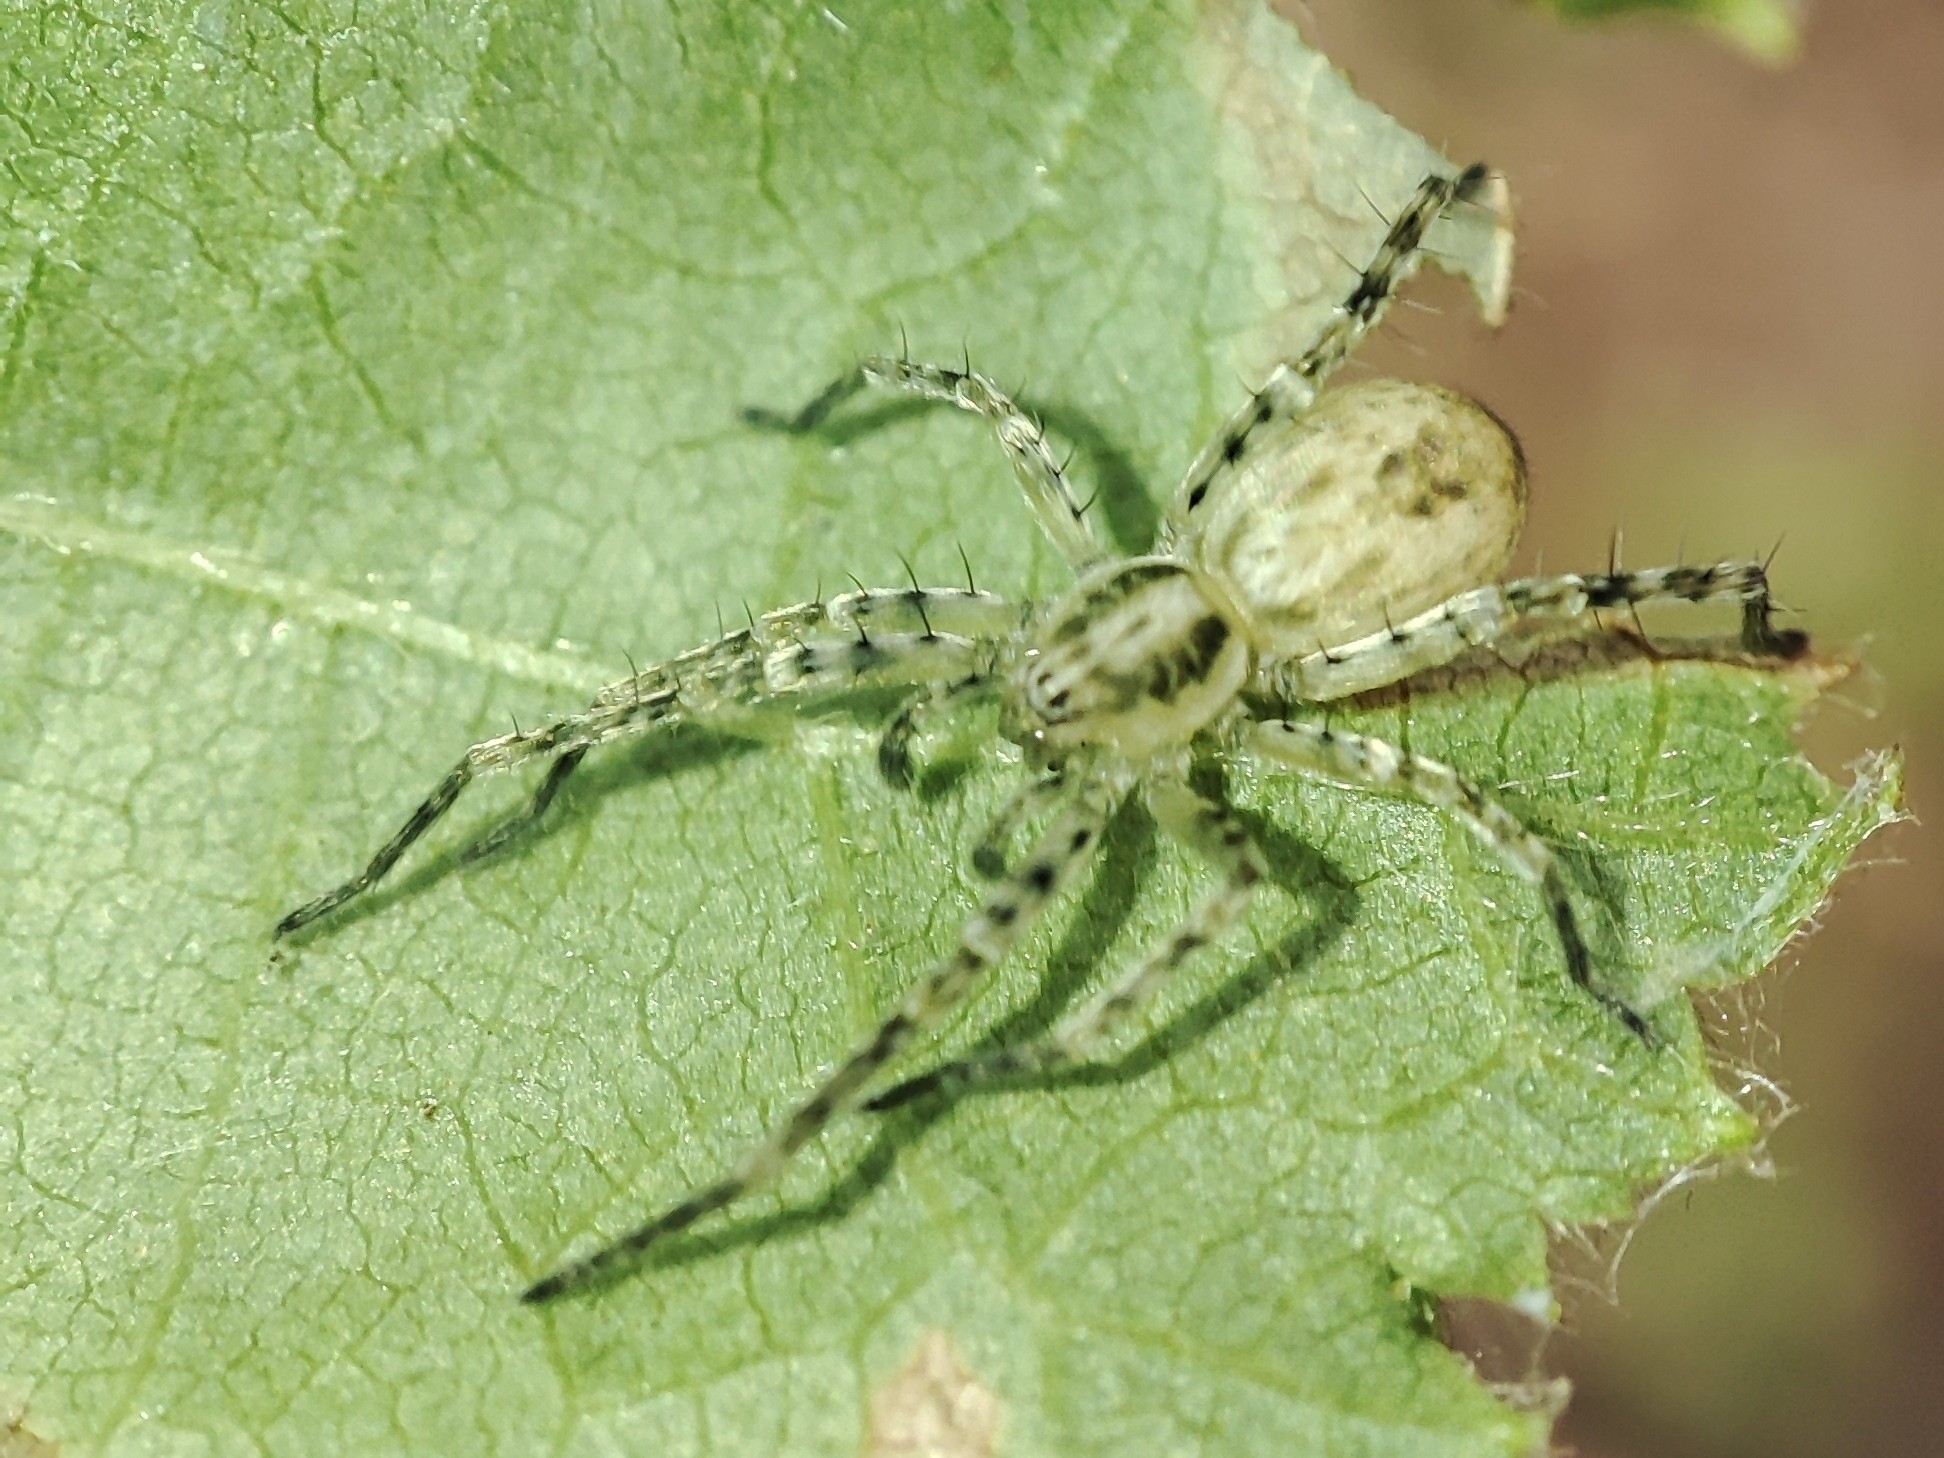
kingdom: Animalia
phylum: Arthropoda
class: Arachnida
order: Araneae
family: Anyphaenidae
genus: Anyphaena
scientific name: Anyphaena accentuata
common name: Buzzing spider
